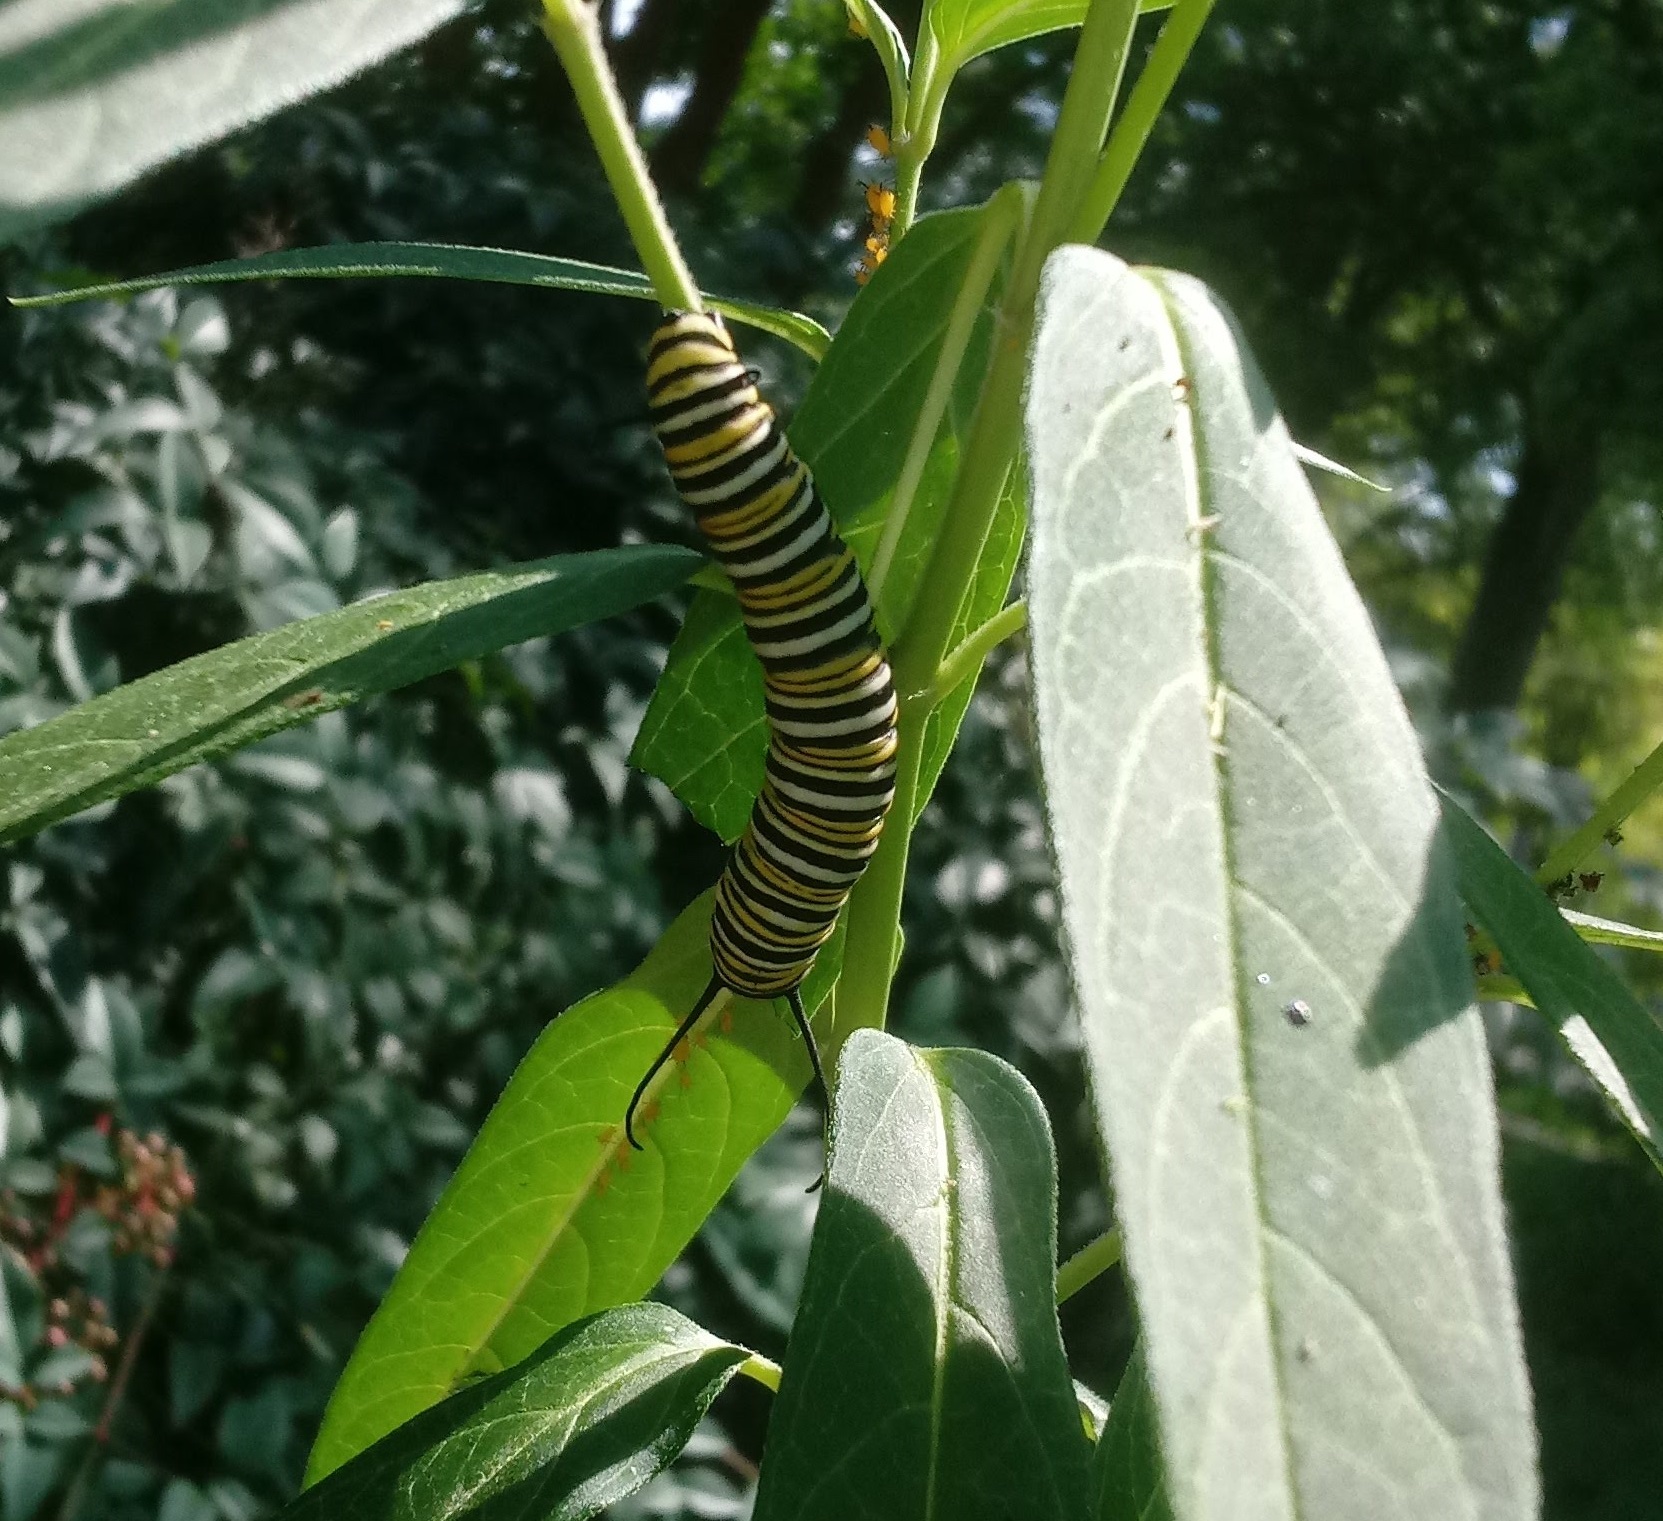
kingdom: Animalia
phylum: Arthropoda
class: Insecta
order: Lepidoptera
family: Nymphalidae
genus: Danaus
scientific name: Danaus plexippus
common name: Monarch
